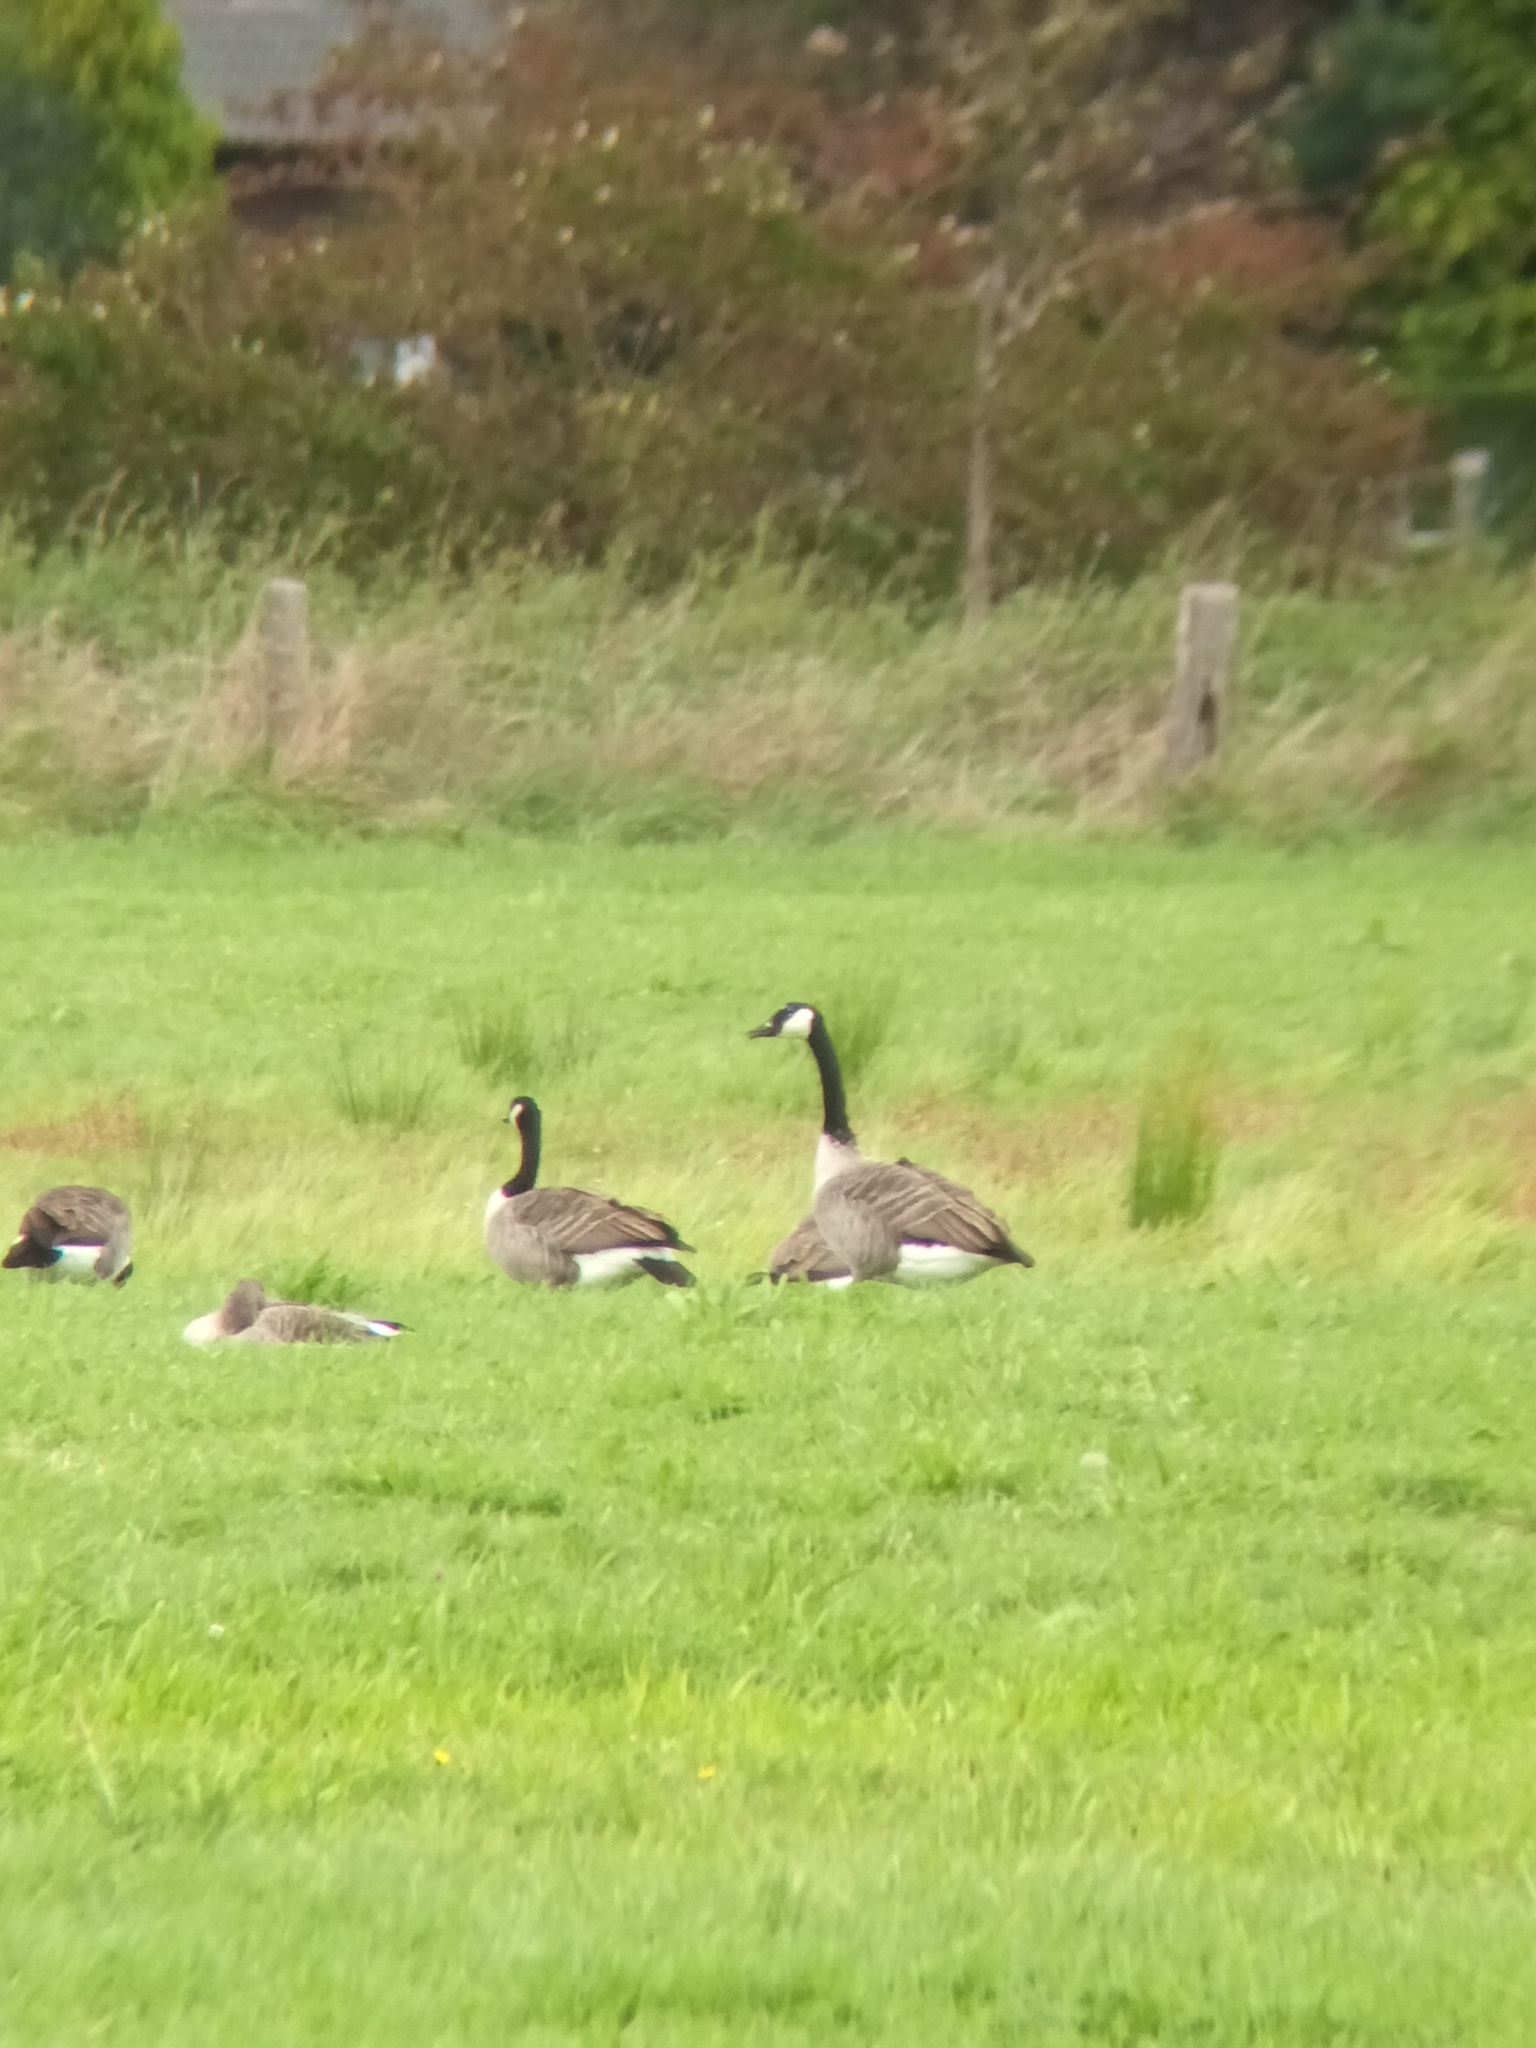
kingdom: Animalia
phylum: Chordata
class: Aves
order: Anseriformes
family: Anatidae
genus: Branta
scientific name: Branta canadensis
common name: Canada goose
